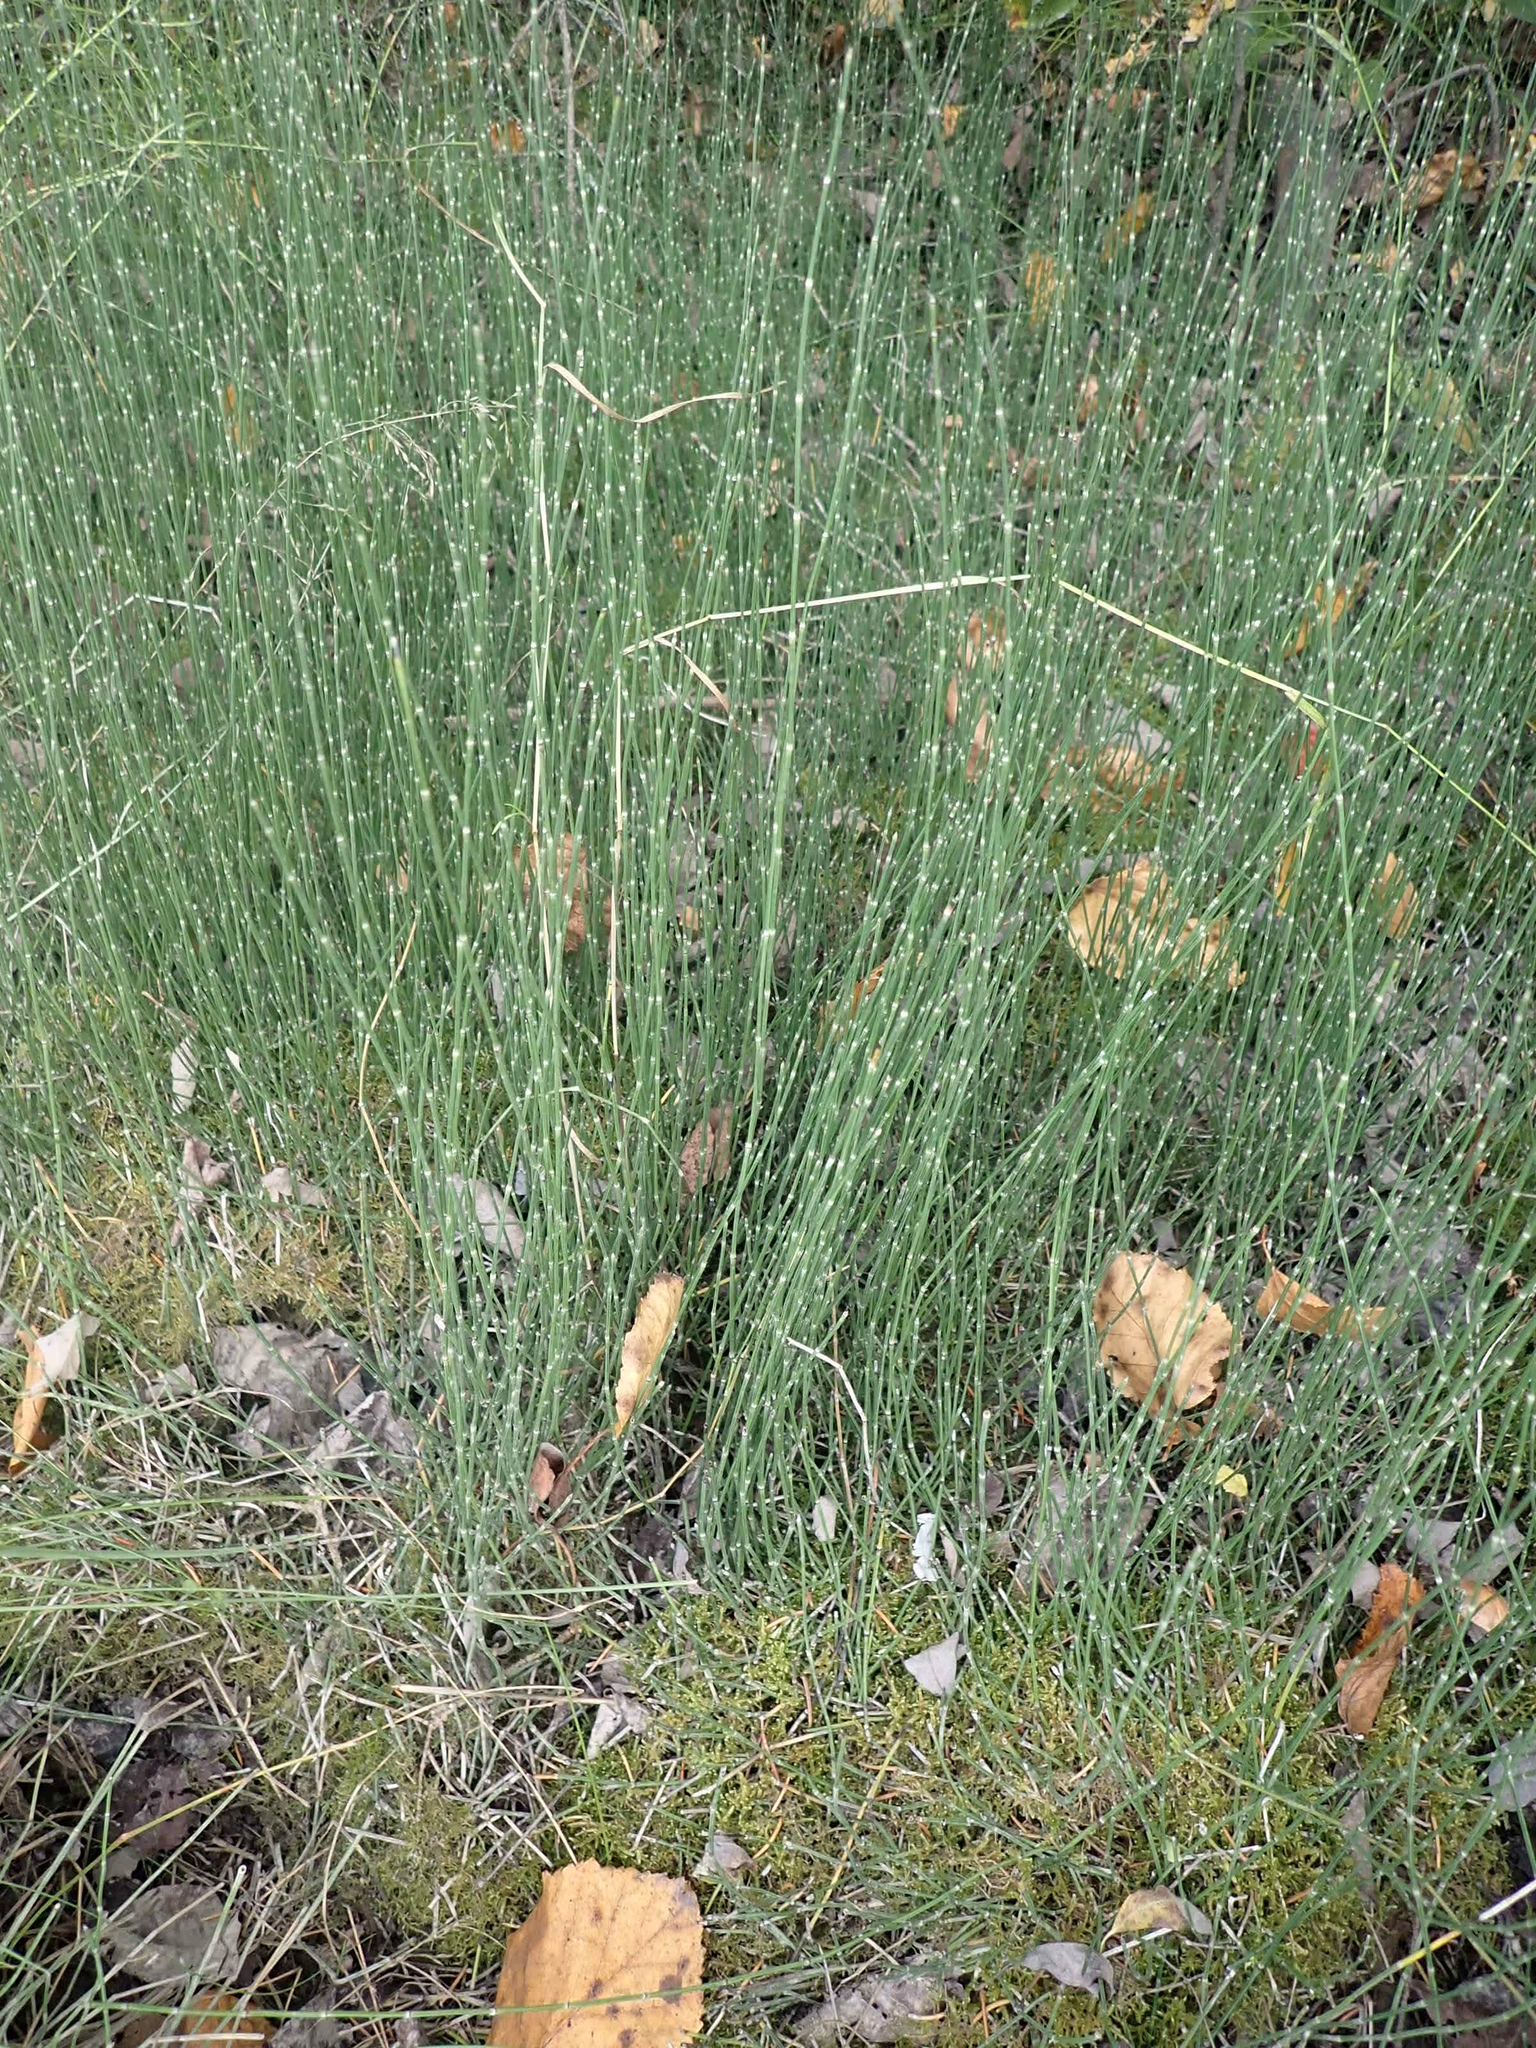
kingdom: Plantae
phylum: Tracheophyta
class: Polypodiopsida
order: Equisetales
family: Equisetaceae
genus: Equisetum
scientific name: Equisetum variegatum
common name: Variegated horsetail
